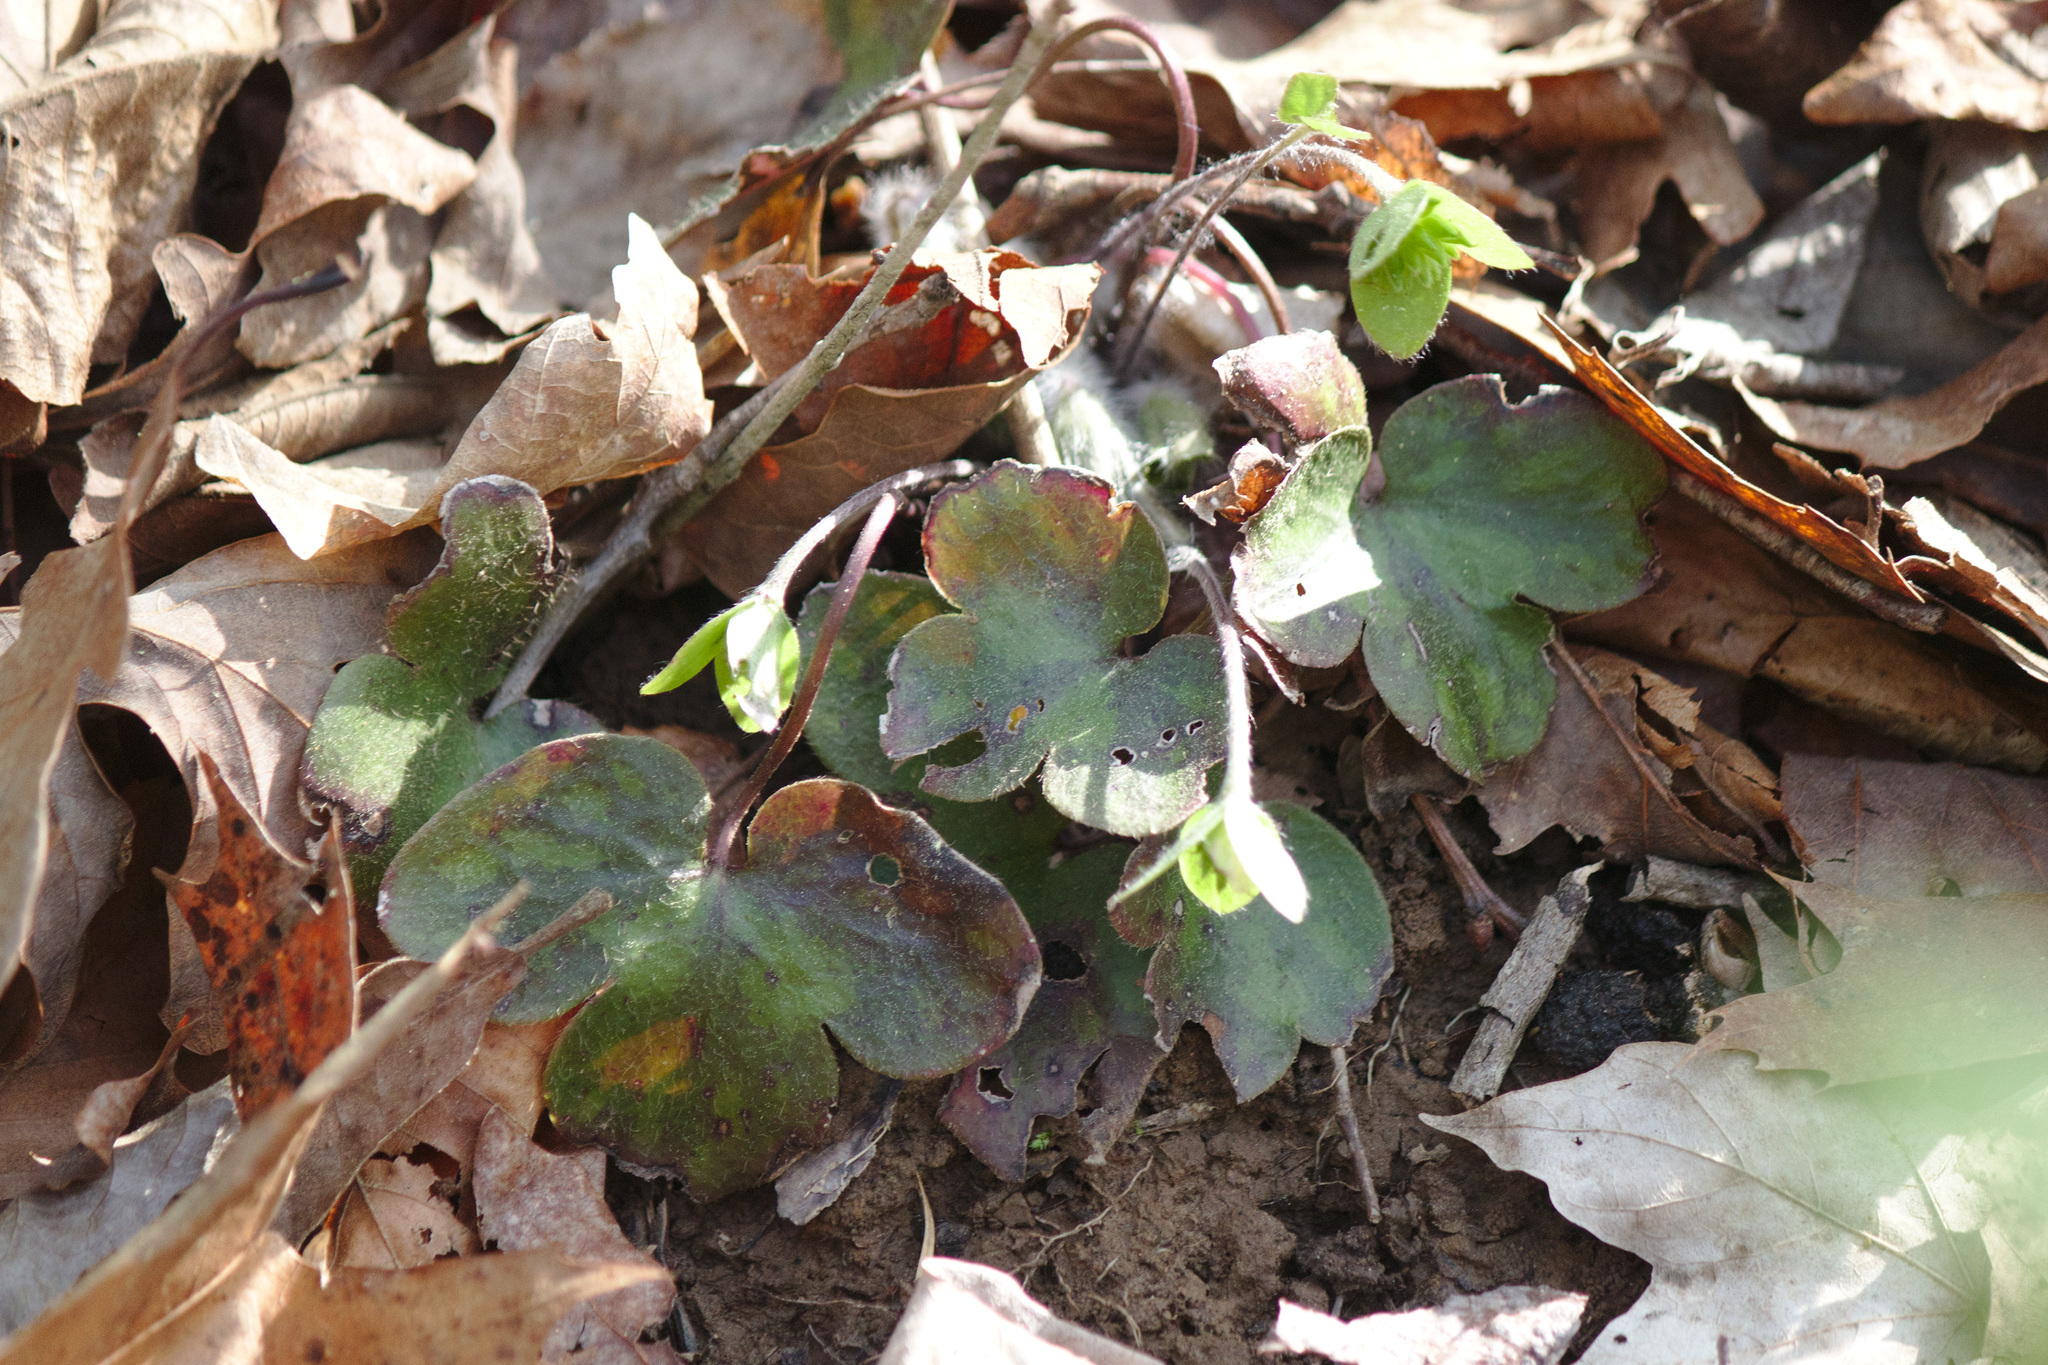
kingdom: Plantae
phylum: Tracheophyta
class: Magnoliopsida
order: Ranunculales
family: Ranunculaceae
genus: Hepatica
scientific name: Hepatica americana
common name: American hepatica
